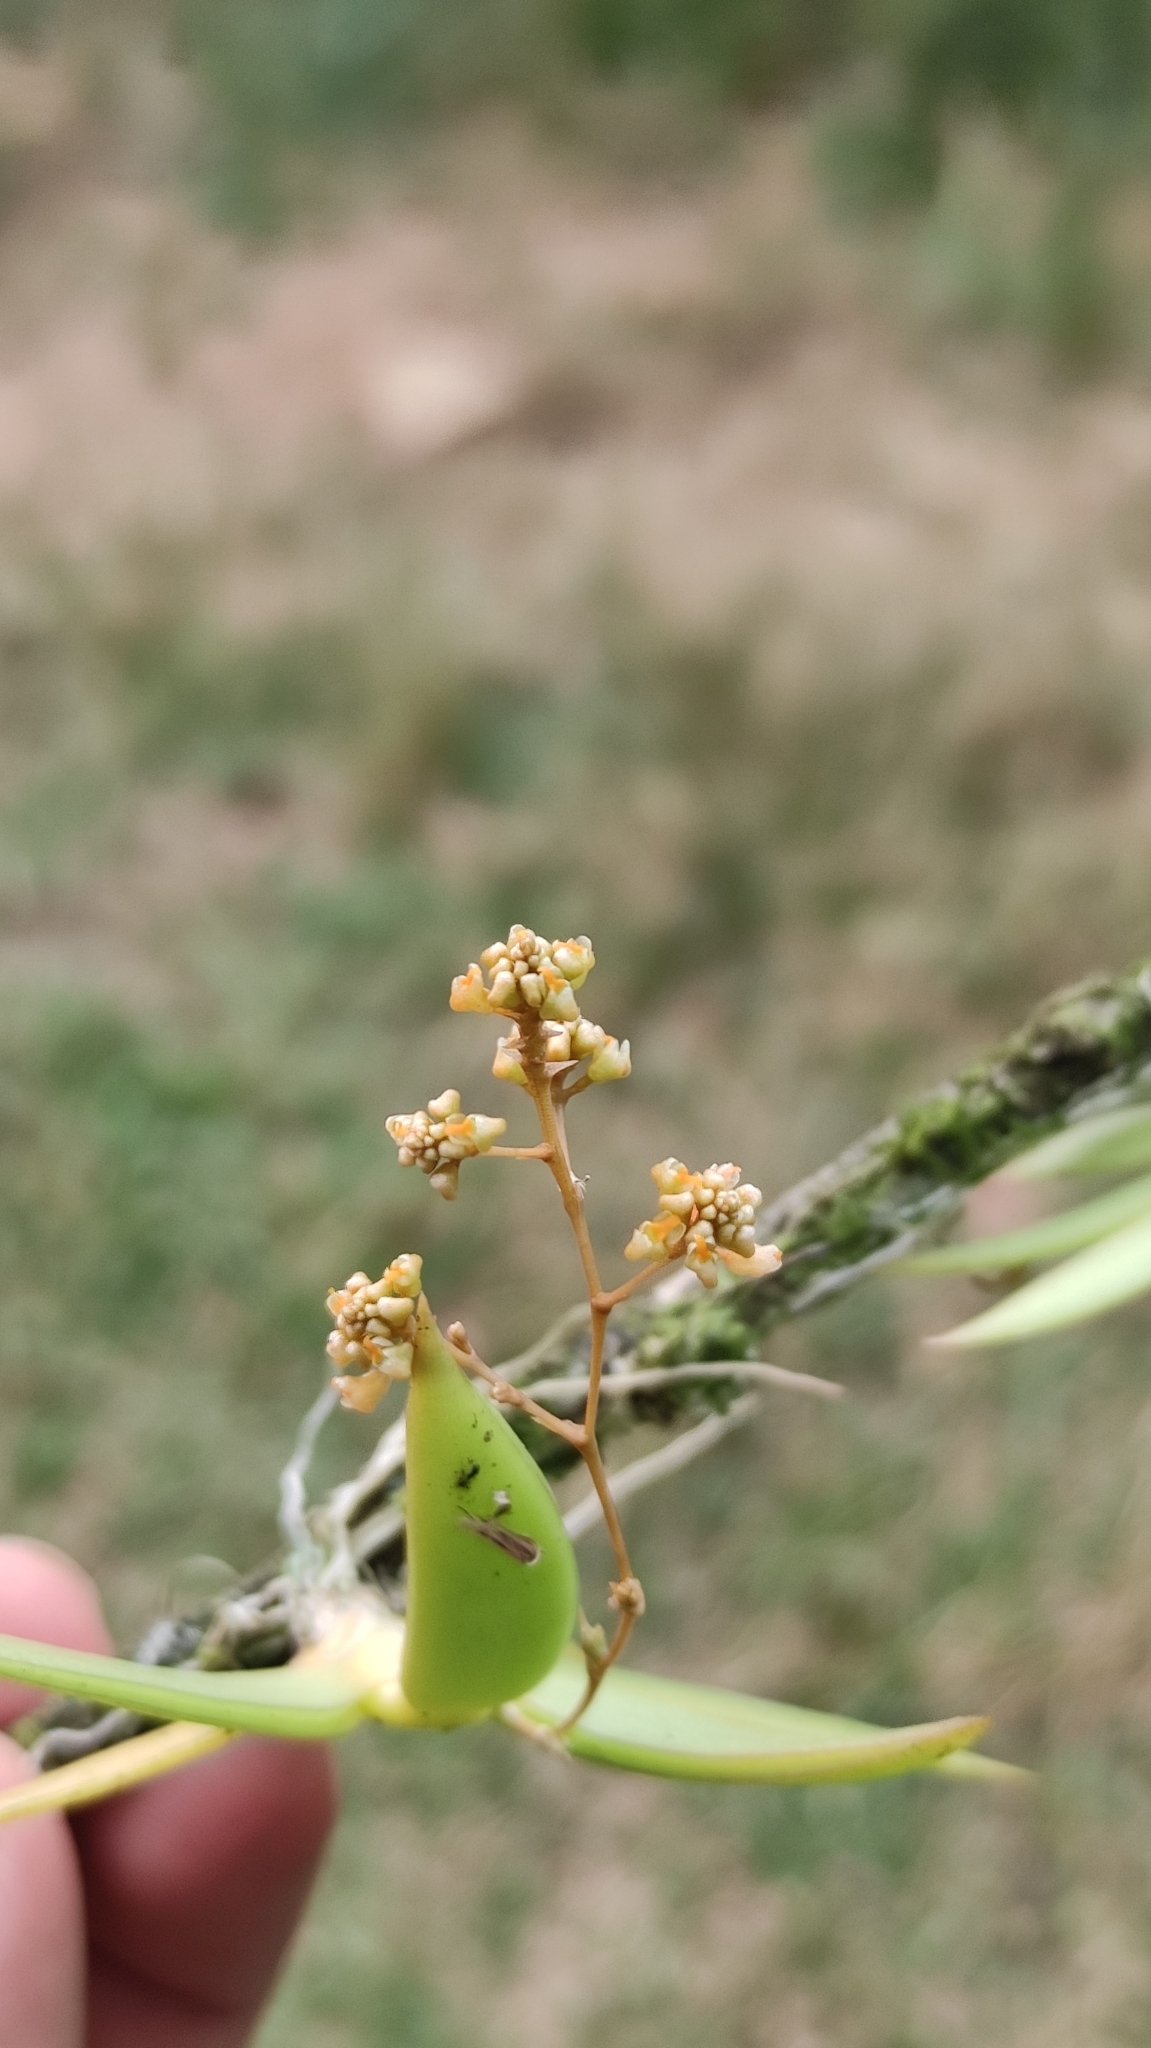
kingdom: Plantae
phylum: Tracheophyta
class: Liliopsida
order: Asparagales
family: Orchidaceae
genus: Trizeuxis
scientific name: Trizeuxis falcata
